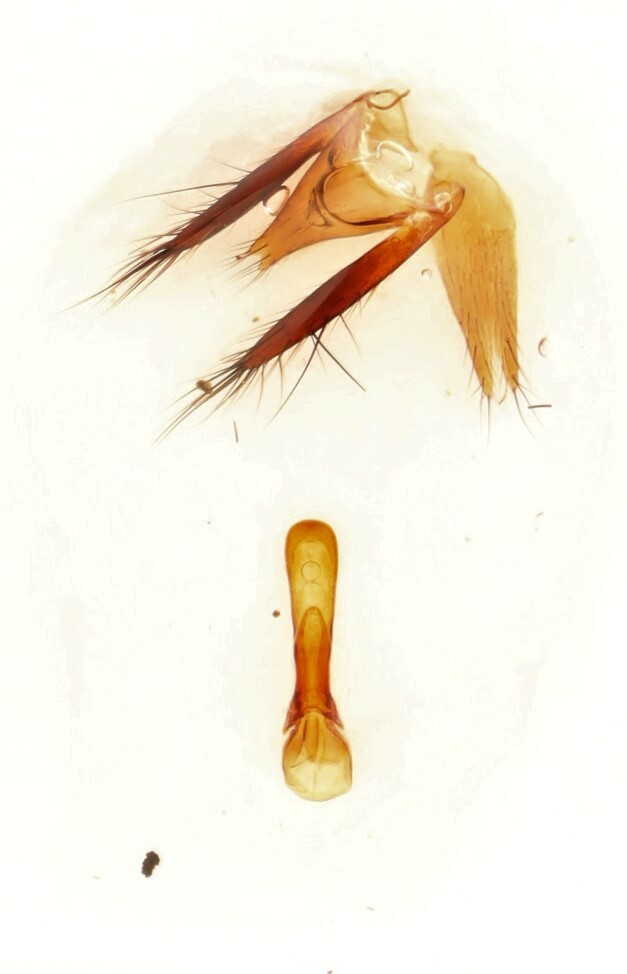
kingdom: Animalia
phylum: Arthropoda
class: Insecta
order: Coleoptera
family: Staphylinidae
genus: Philonthus
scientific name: Philonthus thoracicus
